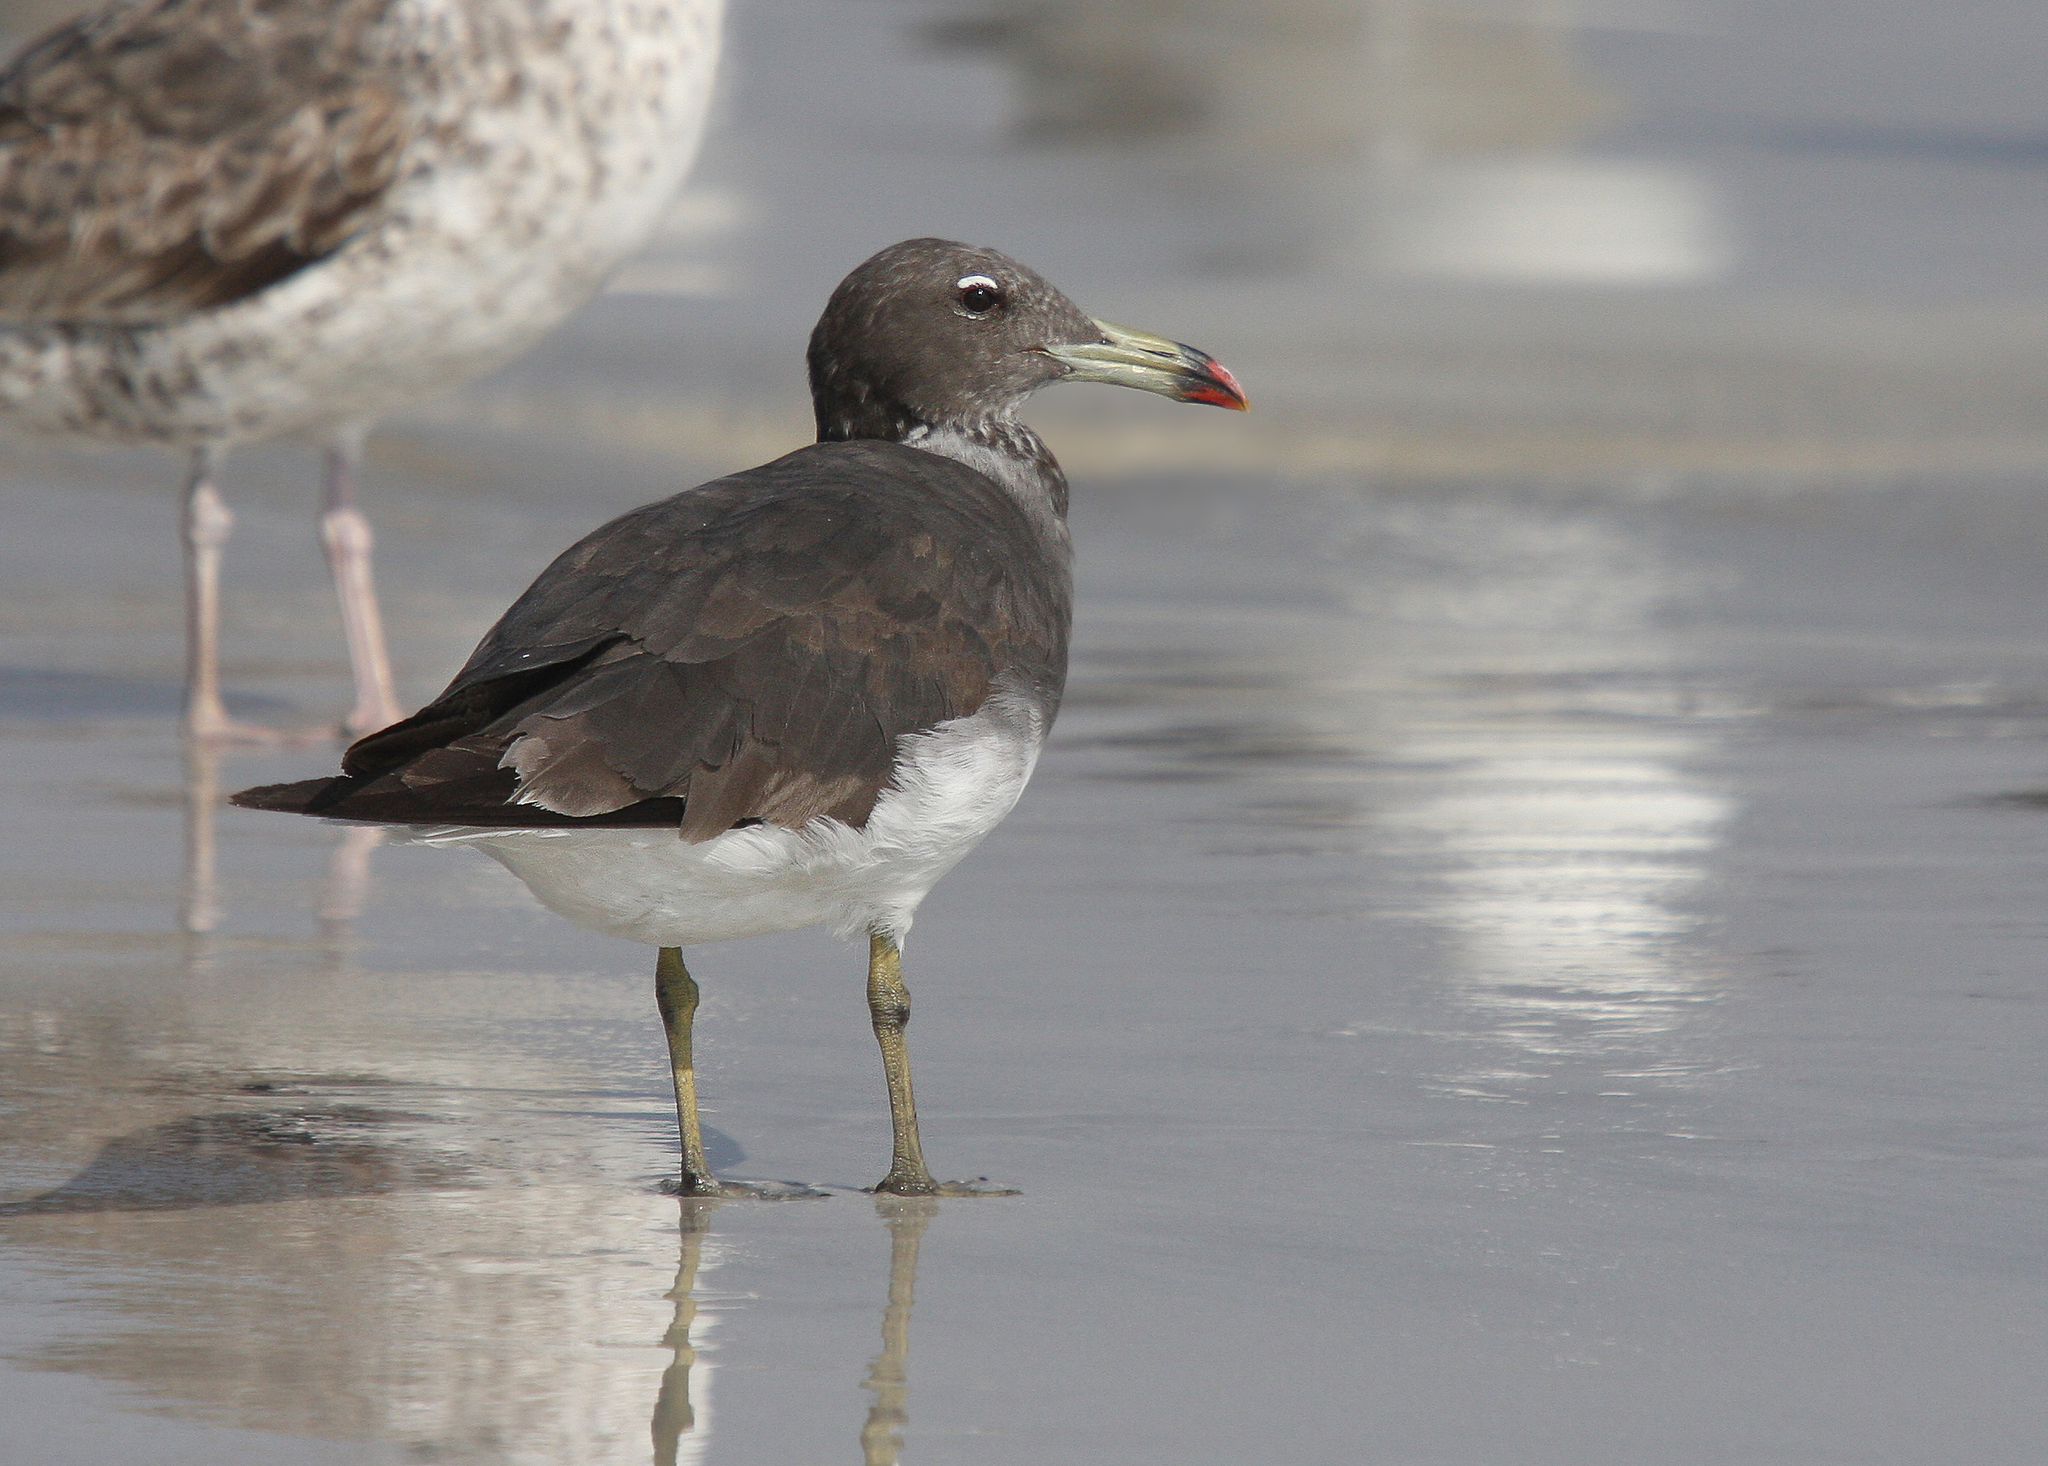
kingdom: Animalia
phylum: Chordata
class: Aves
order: Charadriiformes
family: Laridae
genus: Ichthyaetus
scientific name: Ichthyaetus hemprichii
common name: Sooty gull
